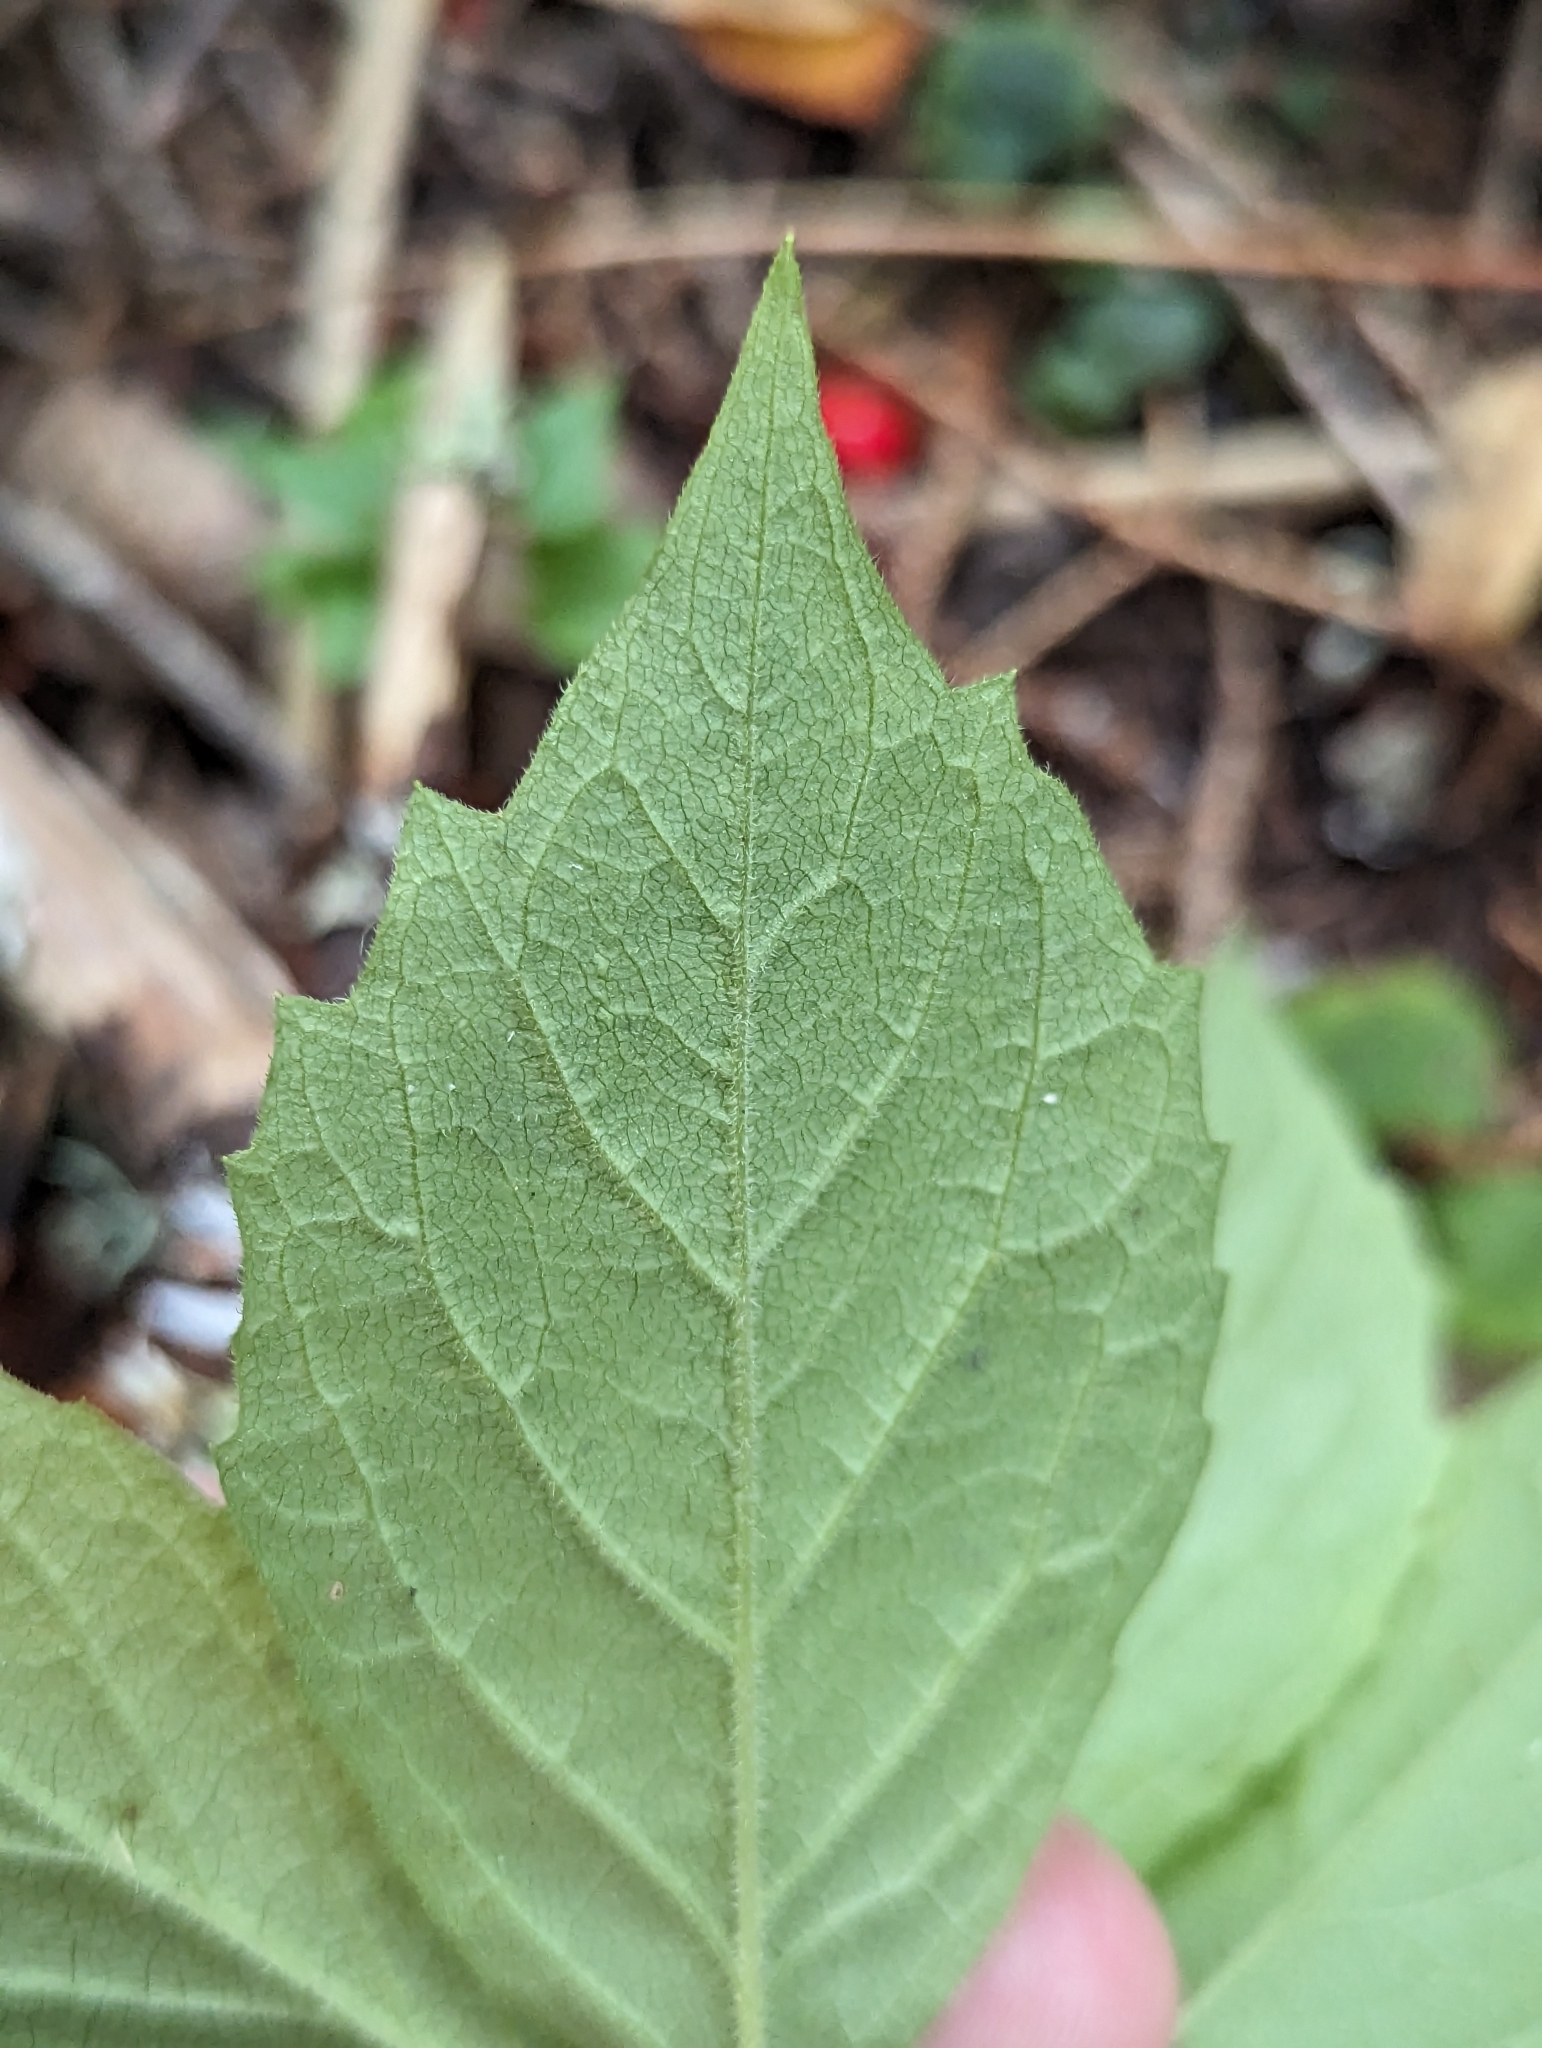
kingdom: Plantae
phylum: Tracheophyta
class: Magnoliopsida
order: Asterales
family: Asteraceae
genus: Oclemena
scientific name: Oclemena acuminata
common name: Mountain aster
